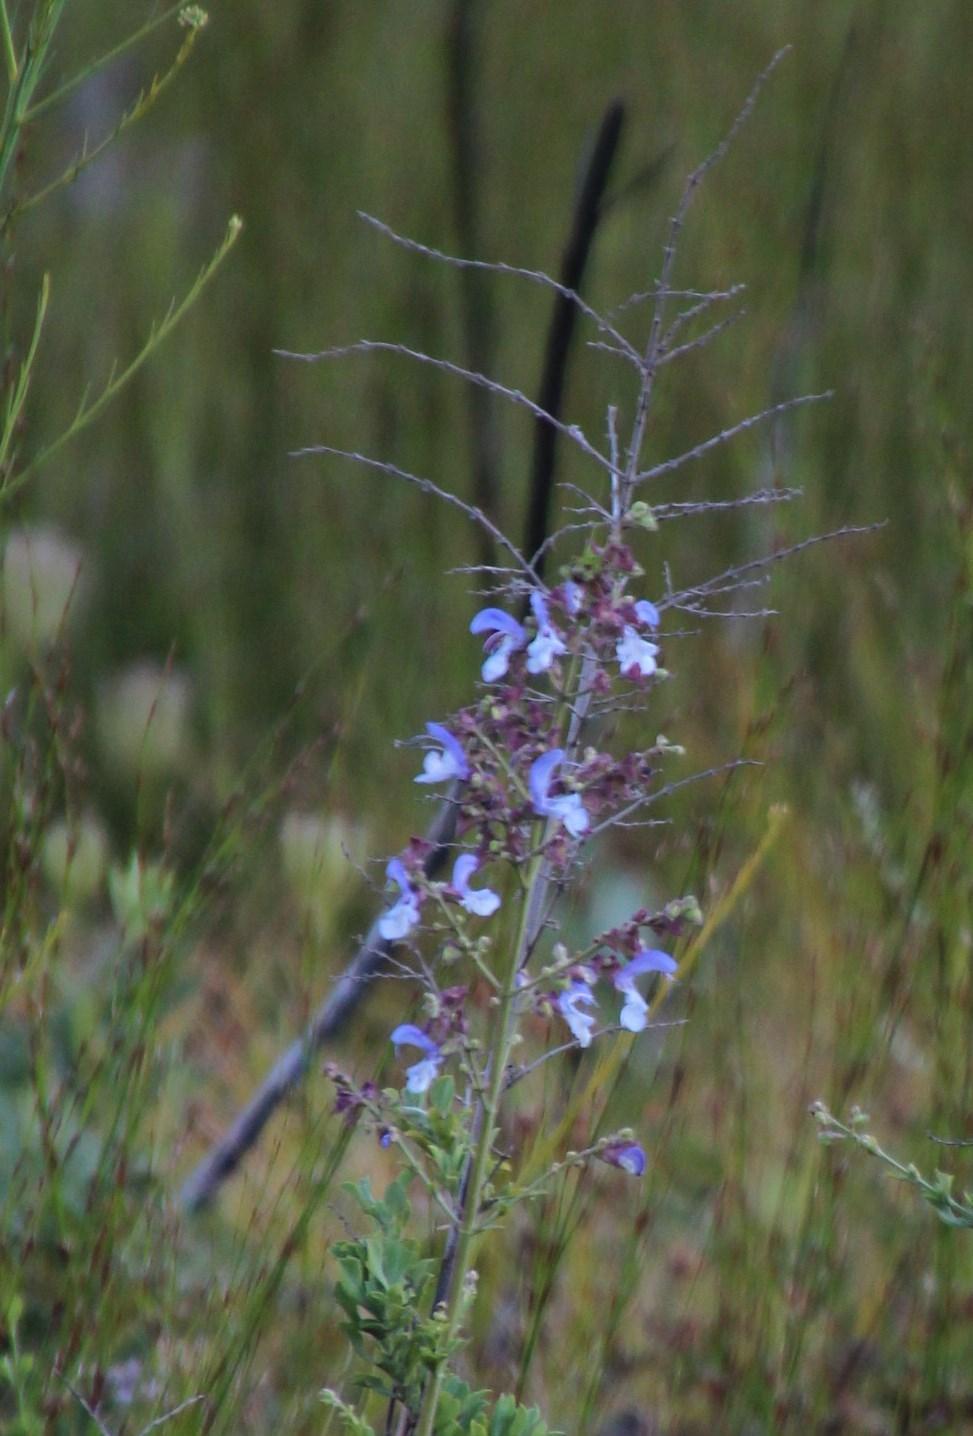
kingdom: Plantae
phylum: Tracheophyta
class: Magnoliopsida
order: Lamiales
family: Lamiaceae
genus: Salvia
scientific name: Salvia chamelaeagnea
